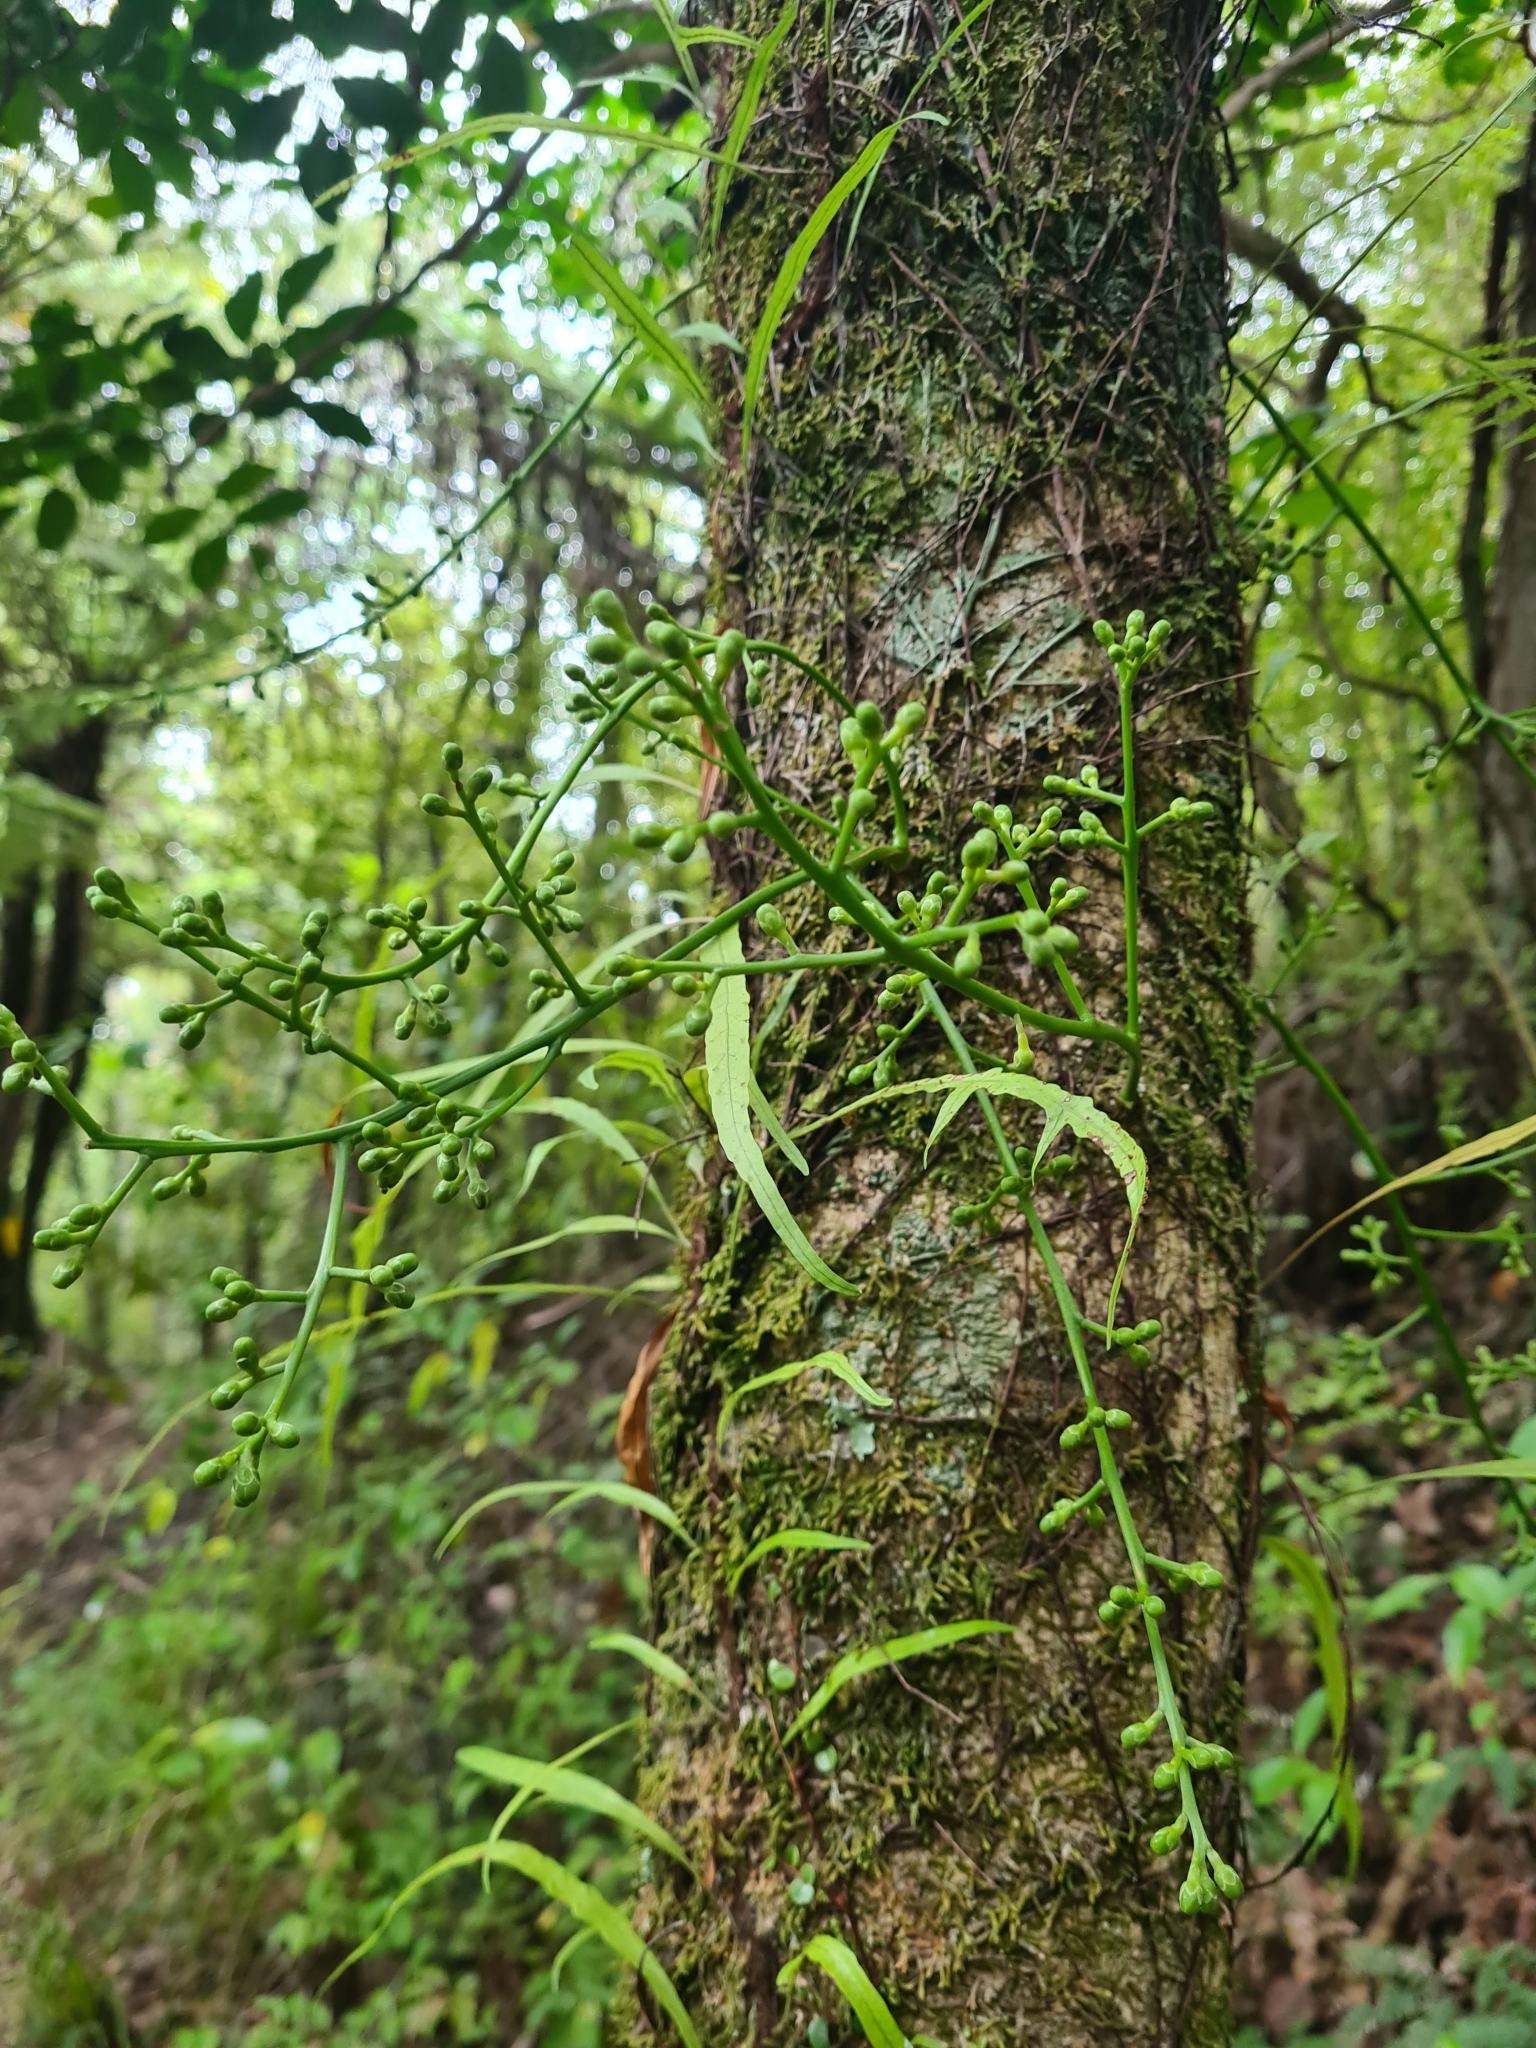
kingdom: Plantae
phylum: Tracheophyta
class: Magnoliopsida
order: Sapindales
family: Meliaceae
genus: Didymocheton
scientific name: Didymocheton spectabilis
